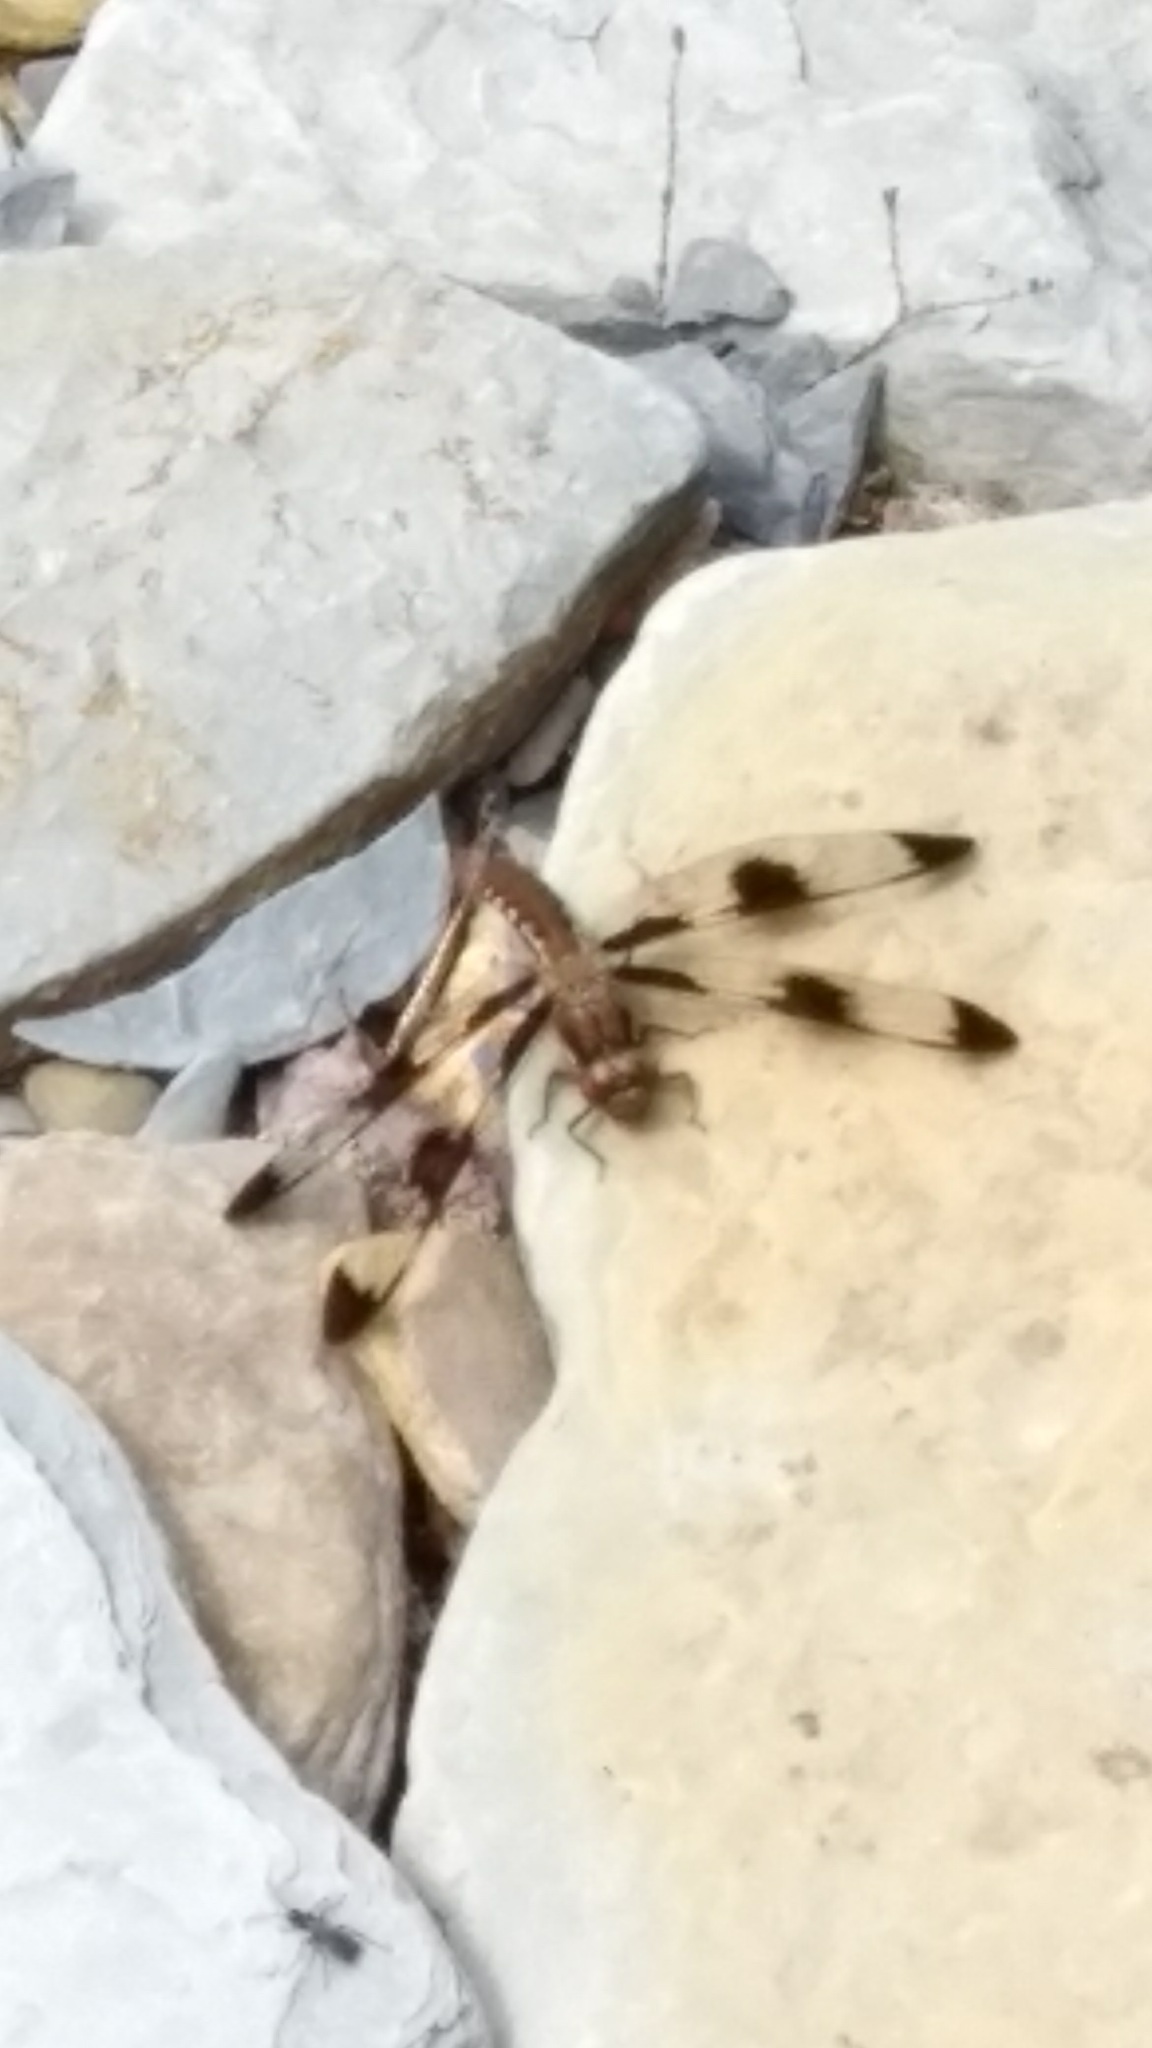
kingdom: Animalia
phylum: Arthropoda
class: Insecta
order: Odonata
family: Libellulidae
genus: Plathemis
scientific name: Plathemis lydia
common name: Common whitetail
